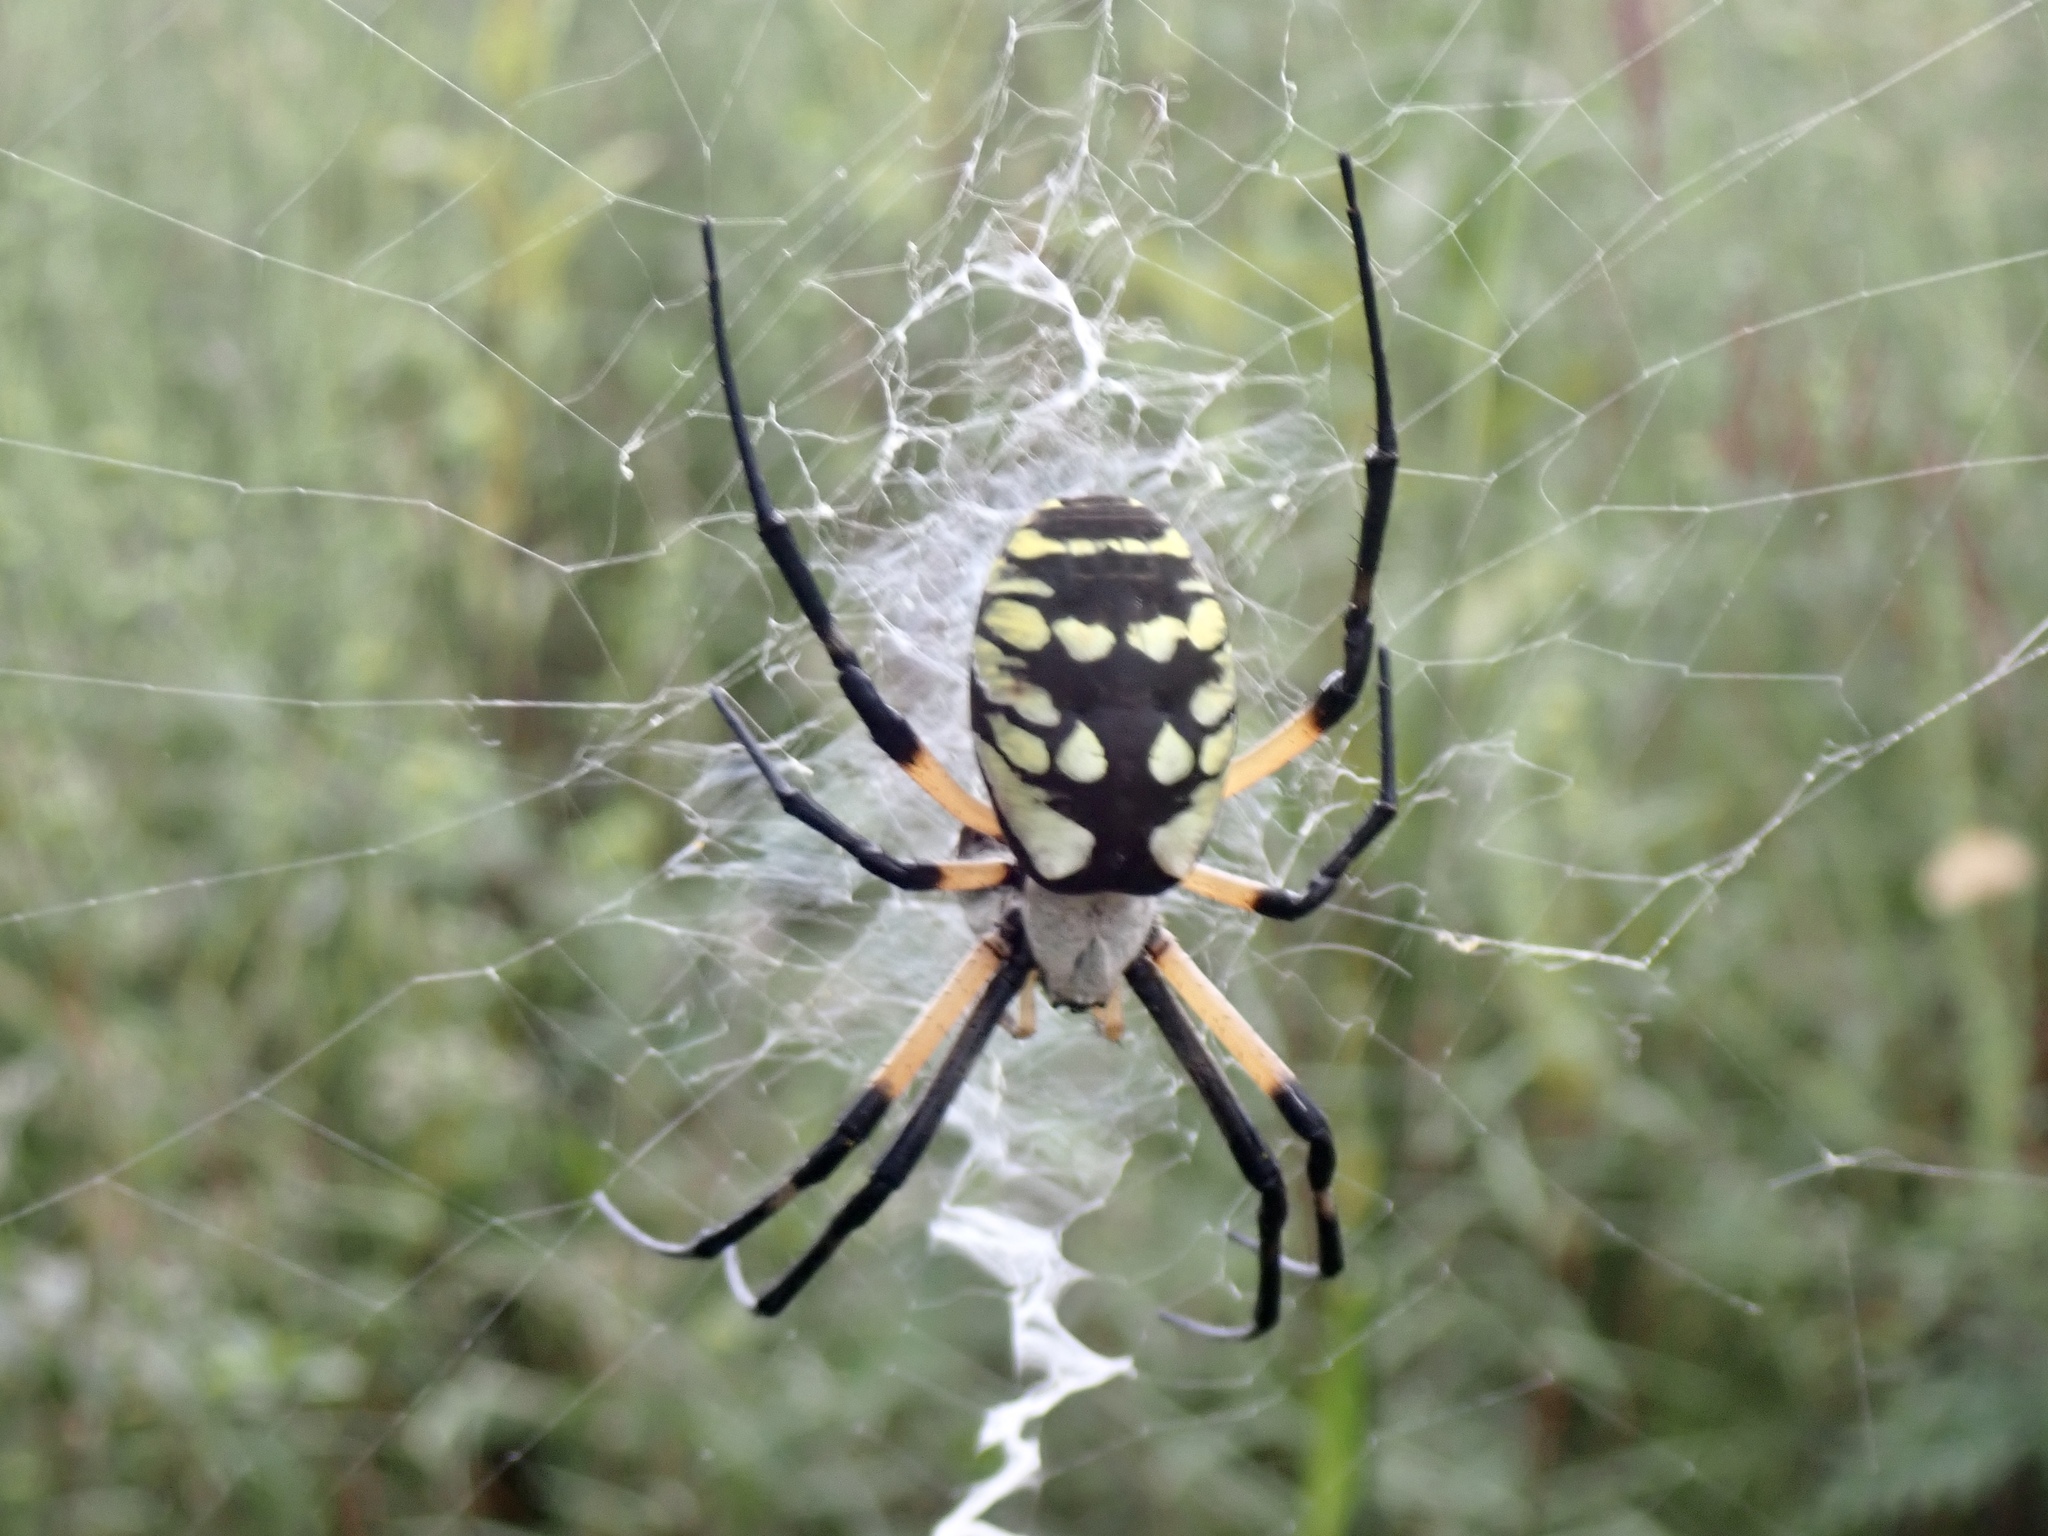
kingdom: Animalia
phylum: Arthropoda
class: Arachnida
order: Araneae
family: Araneidae
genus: Argiope
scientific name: Argiope aurantia
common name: Orb weavers
